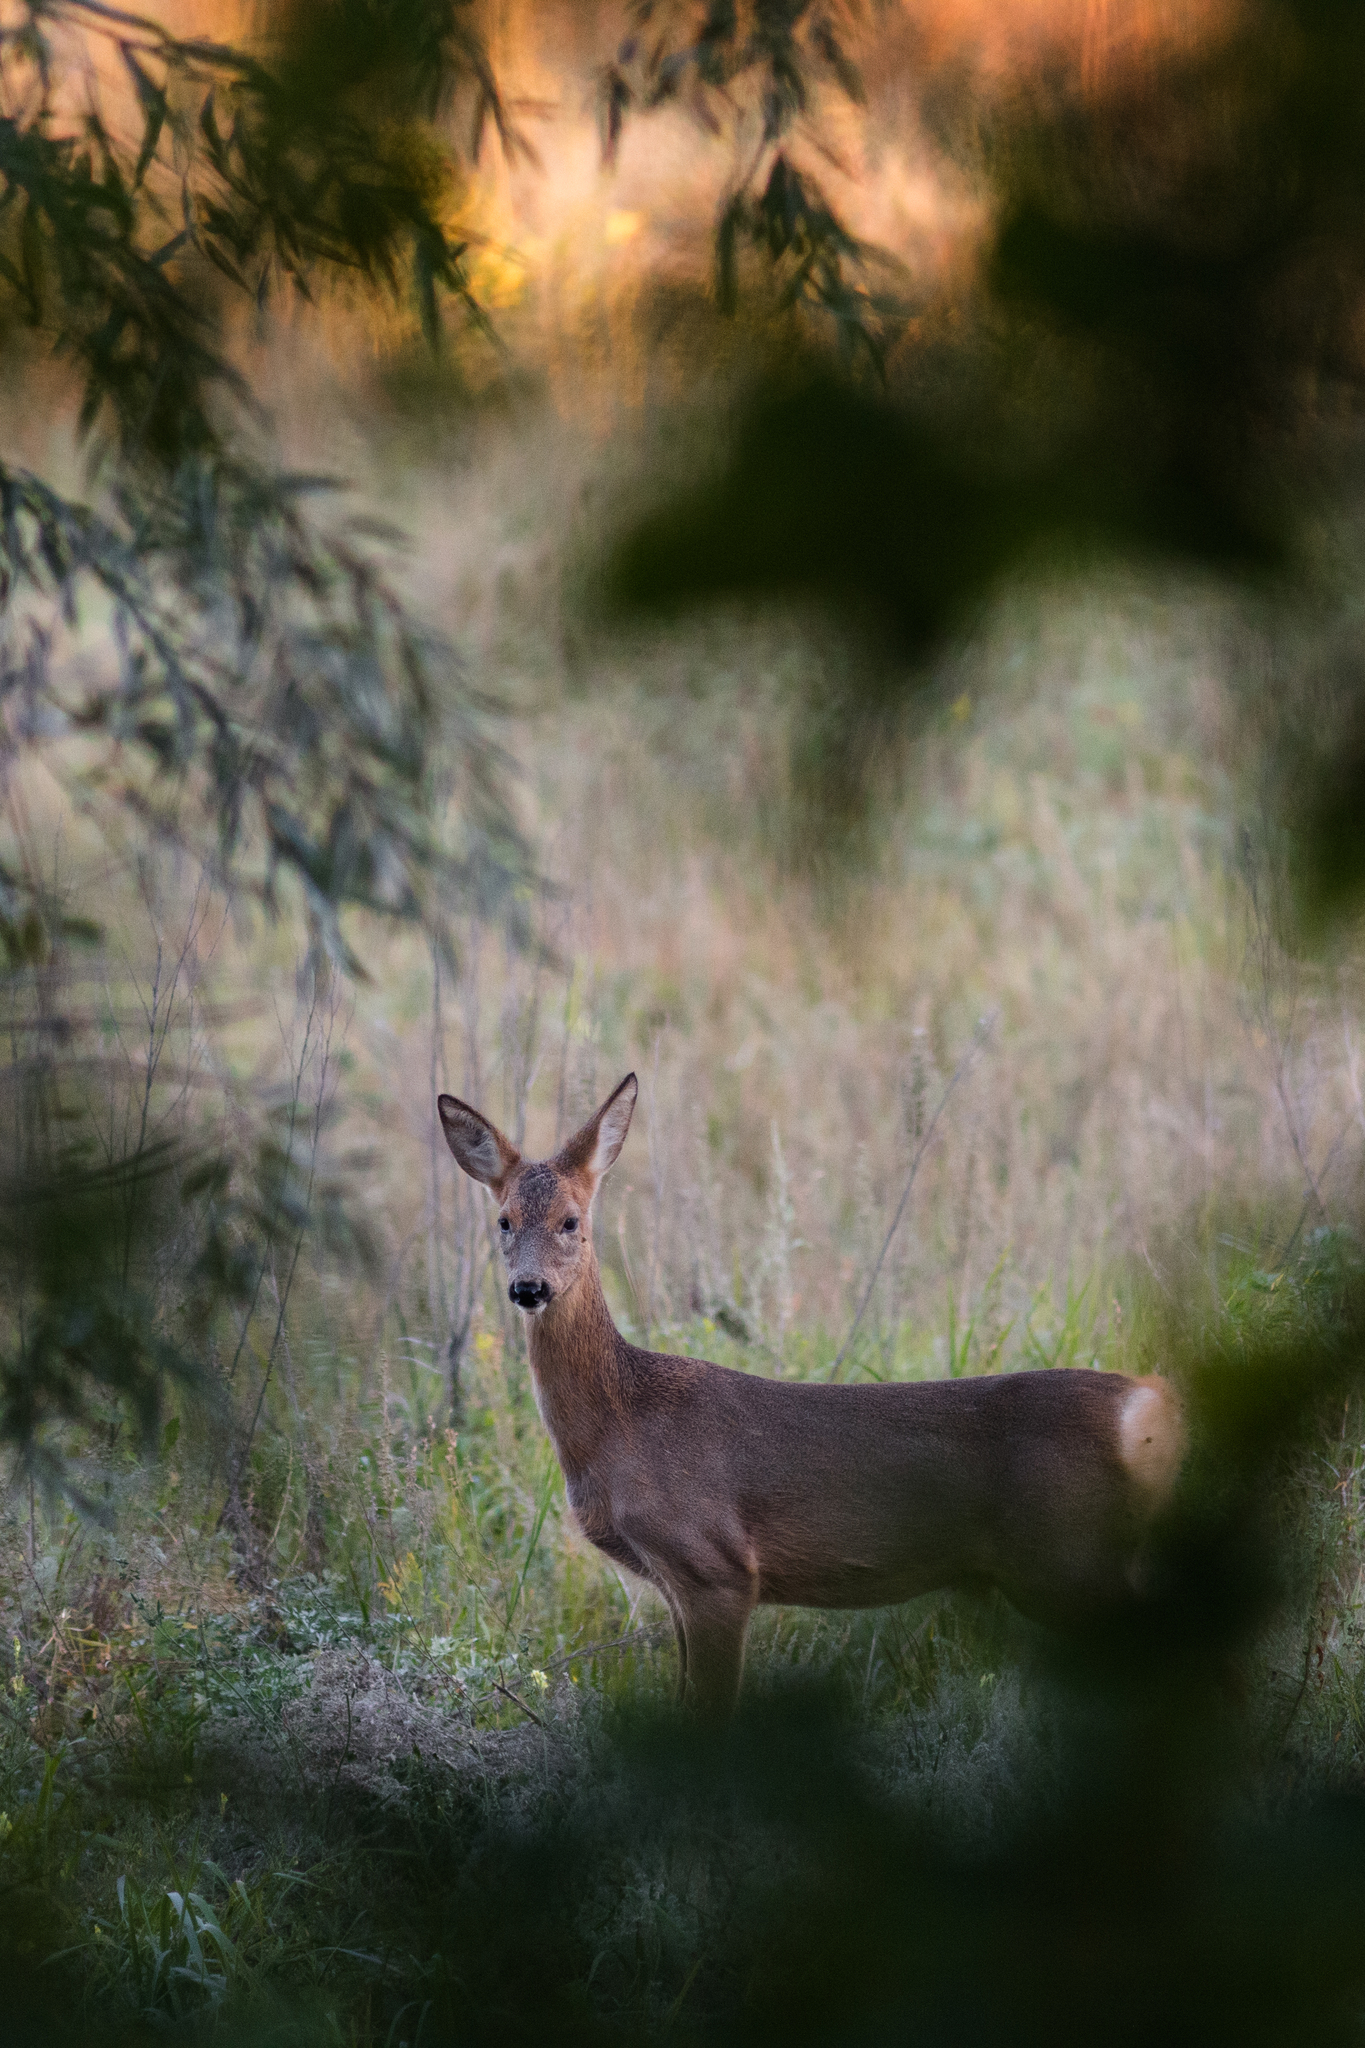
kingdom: Animalia
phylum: Chordata
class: Mammalia
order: Artiodactyla
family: Cervidae
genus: Capreolus
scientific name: Capreolus pygargus
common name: Siberian roe
